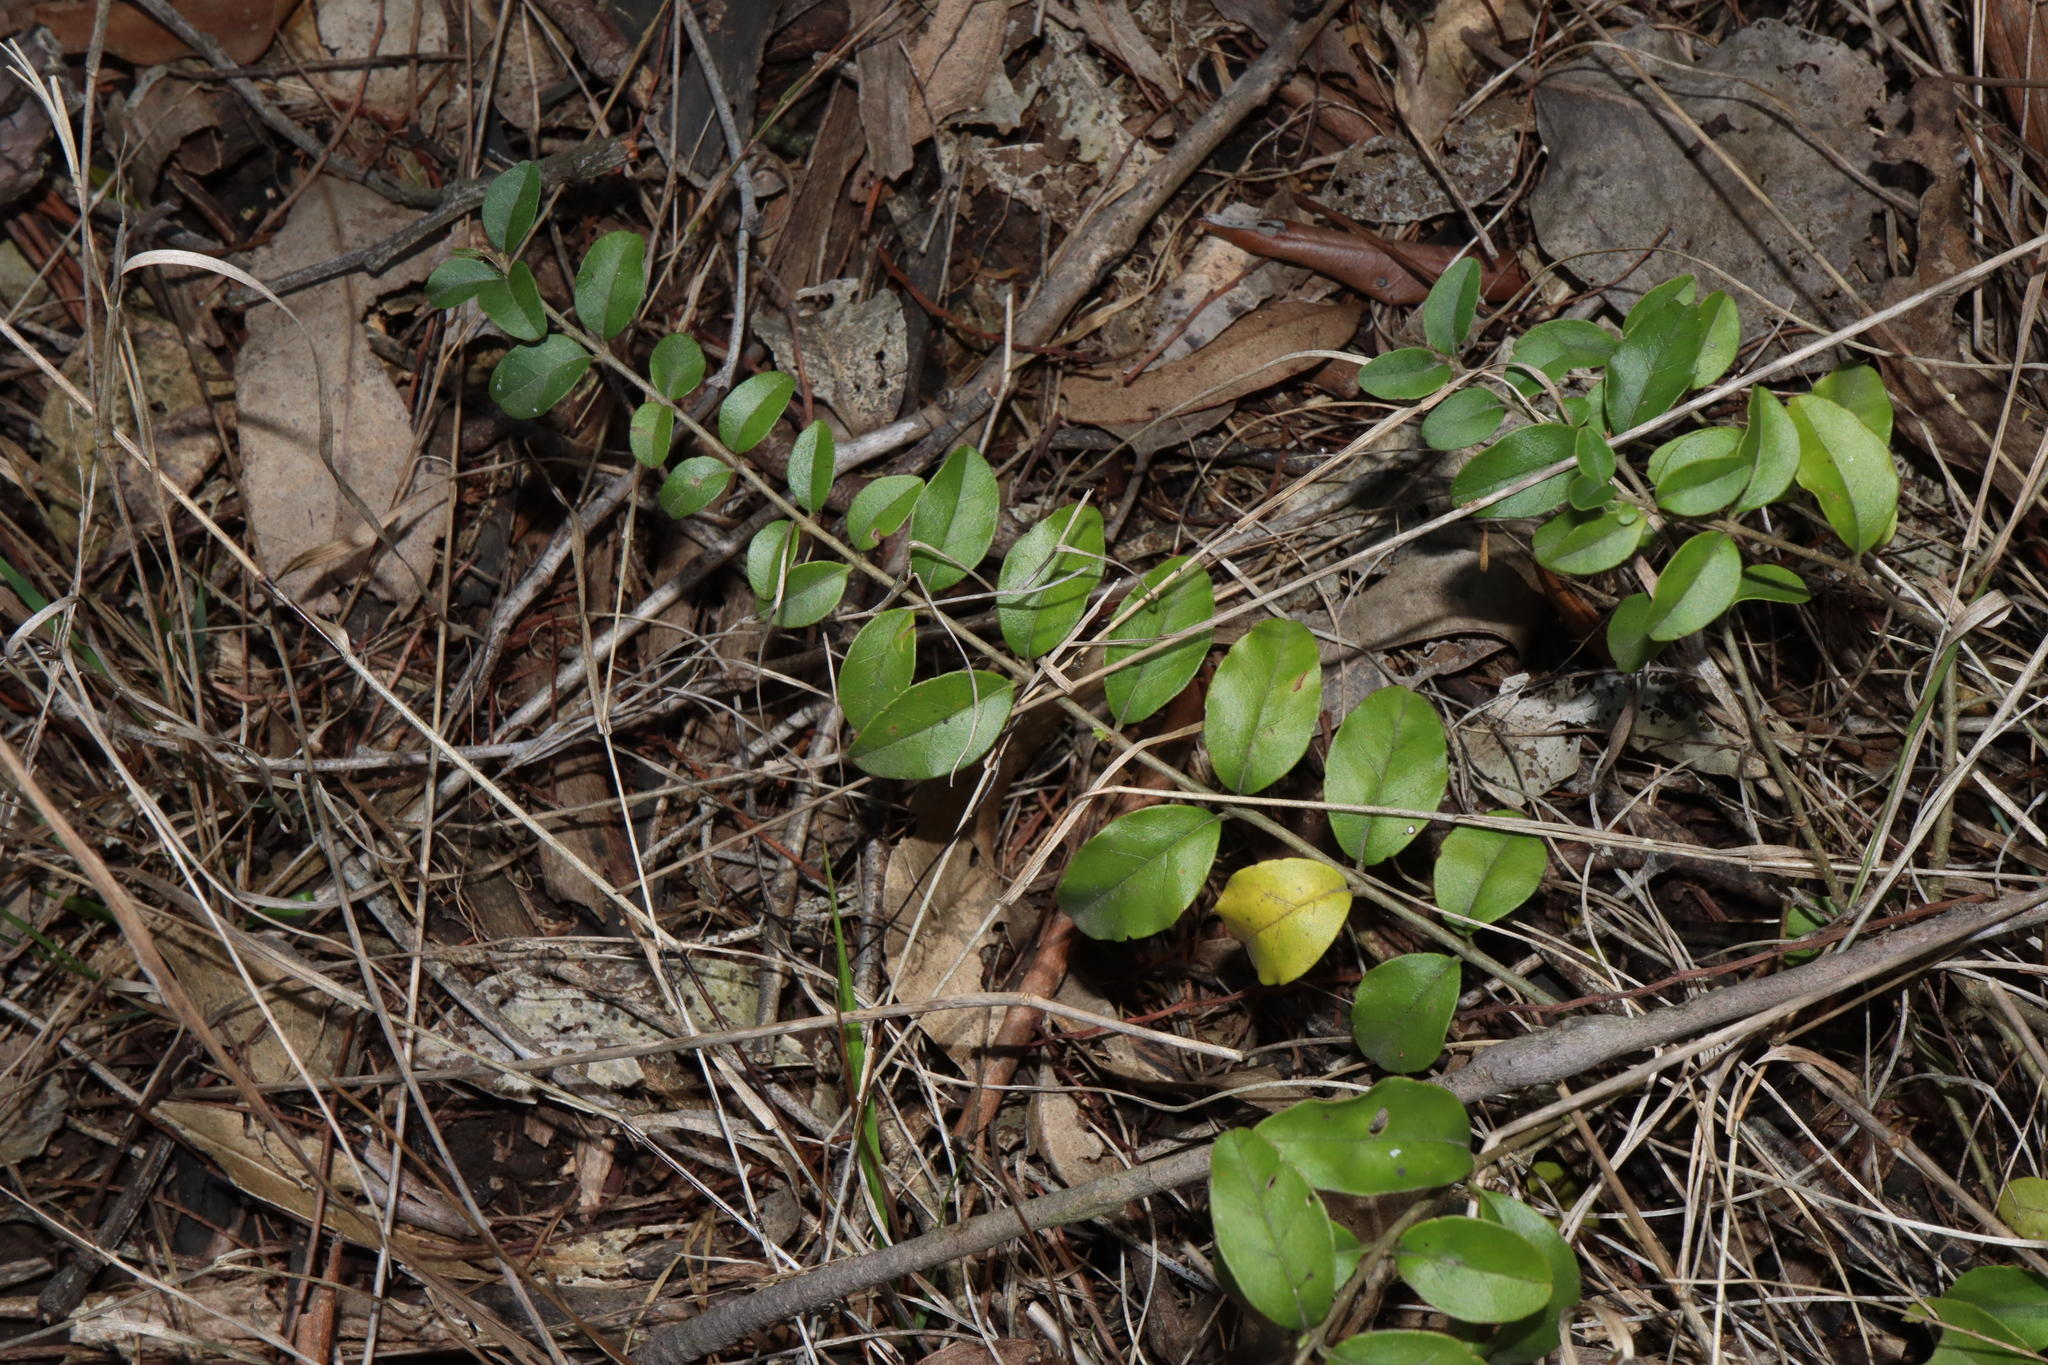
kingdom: Plantae
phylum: Tracheophyta
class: Magnoliopsida
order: Lamiales
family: Oleaceae
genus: Ligustrum
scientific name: Ligustrum sinense
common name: Chinese privet
